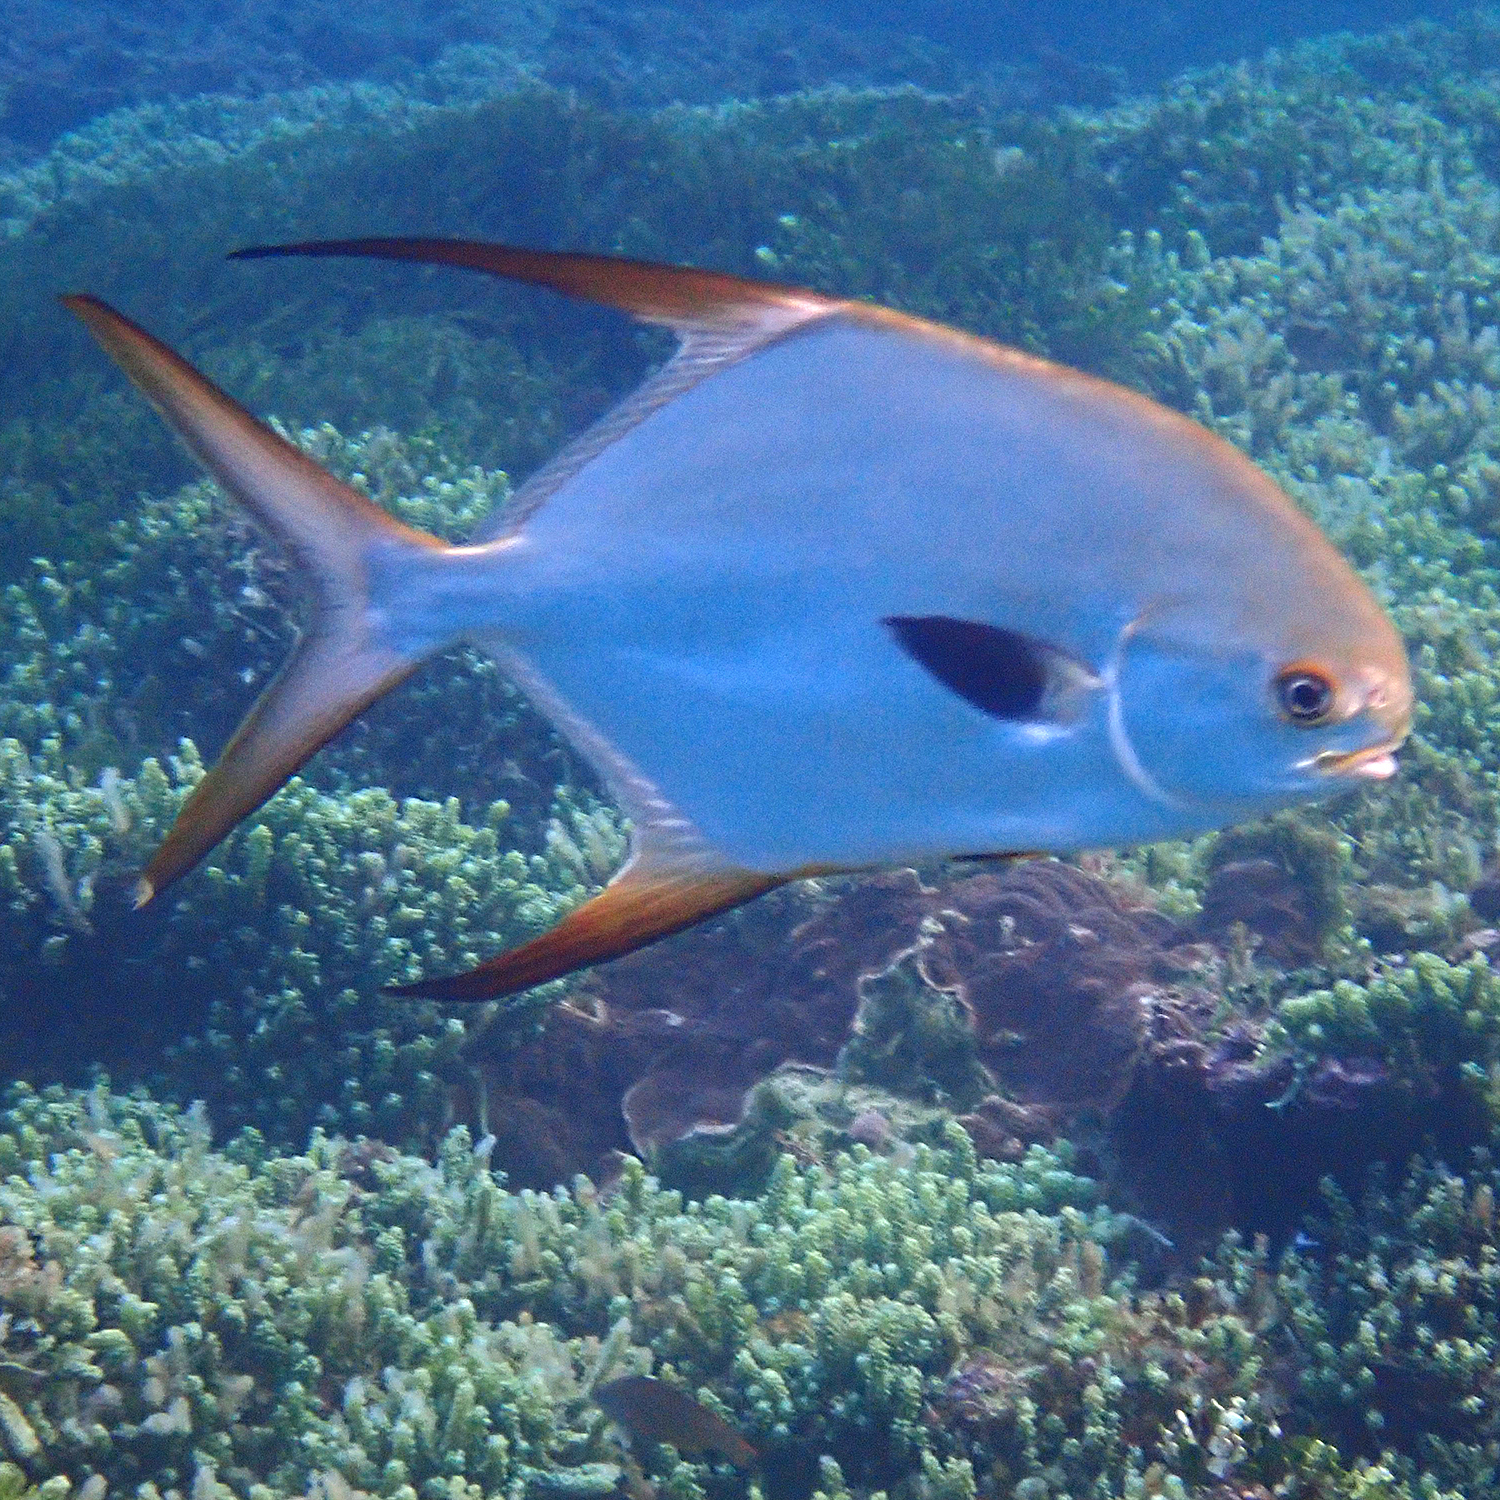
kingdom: Animalia
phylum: Chordata
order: Perciformes
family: Carangidae
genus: Trachinotus
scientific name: Trachinotus blochii
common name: Snubnose pompano
